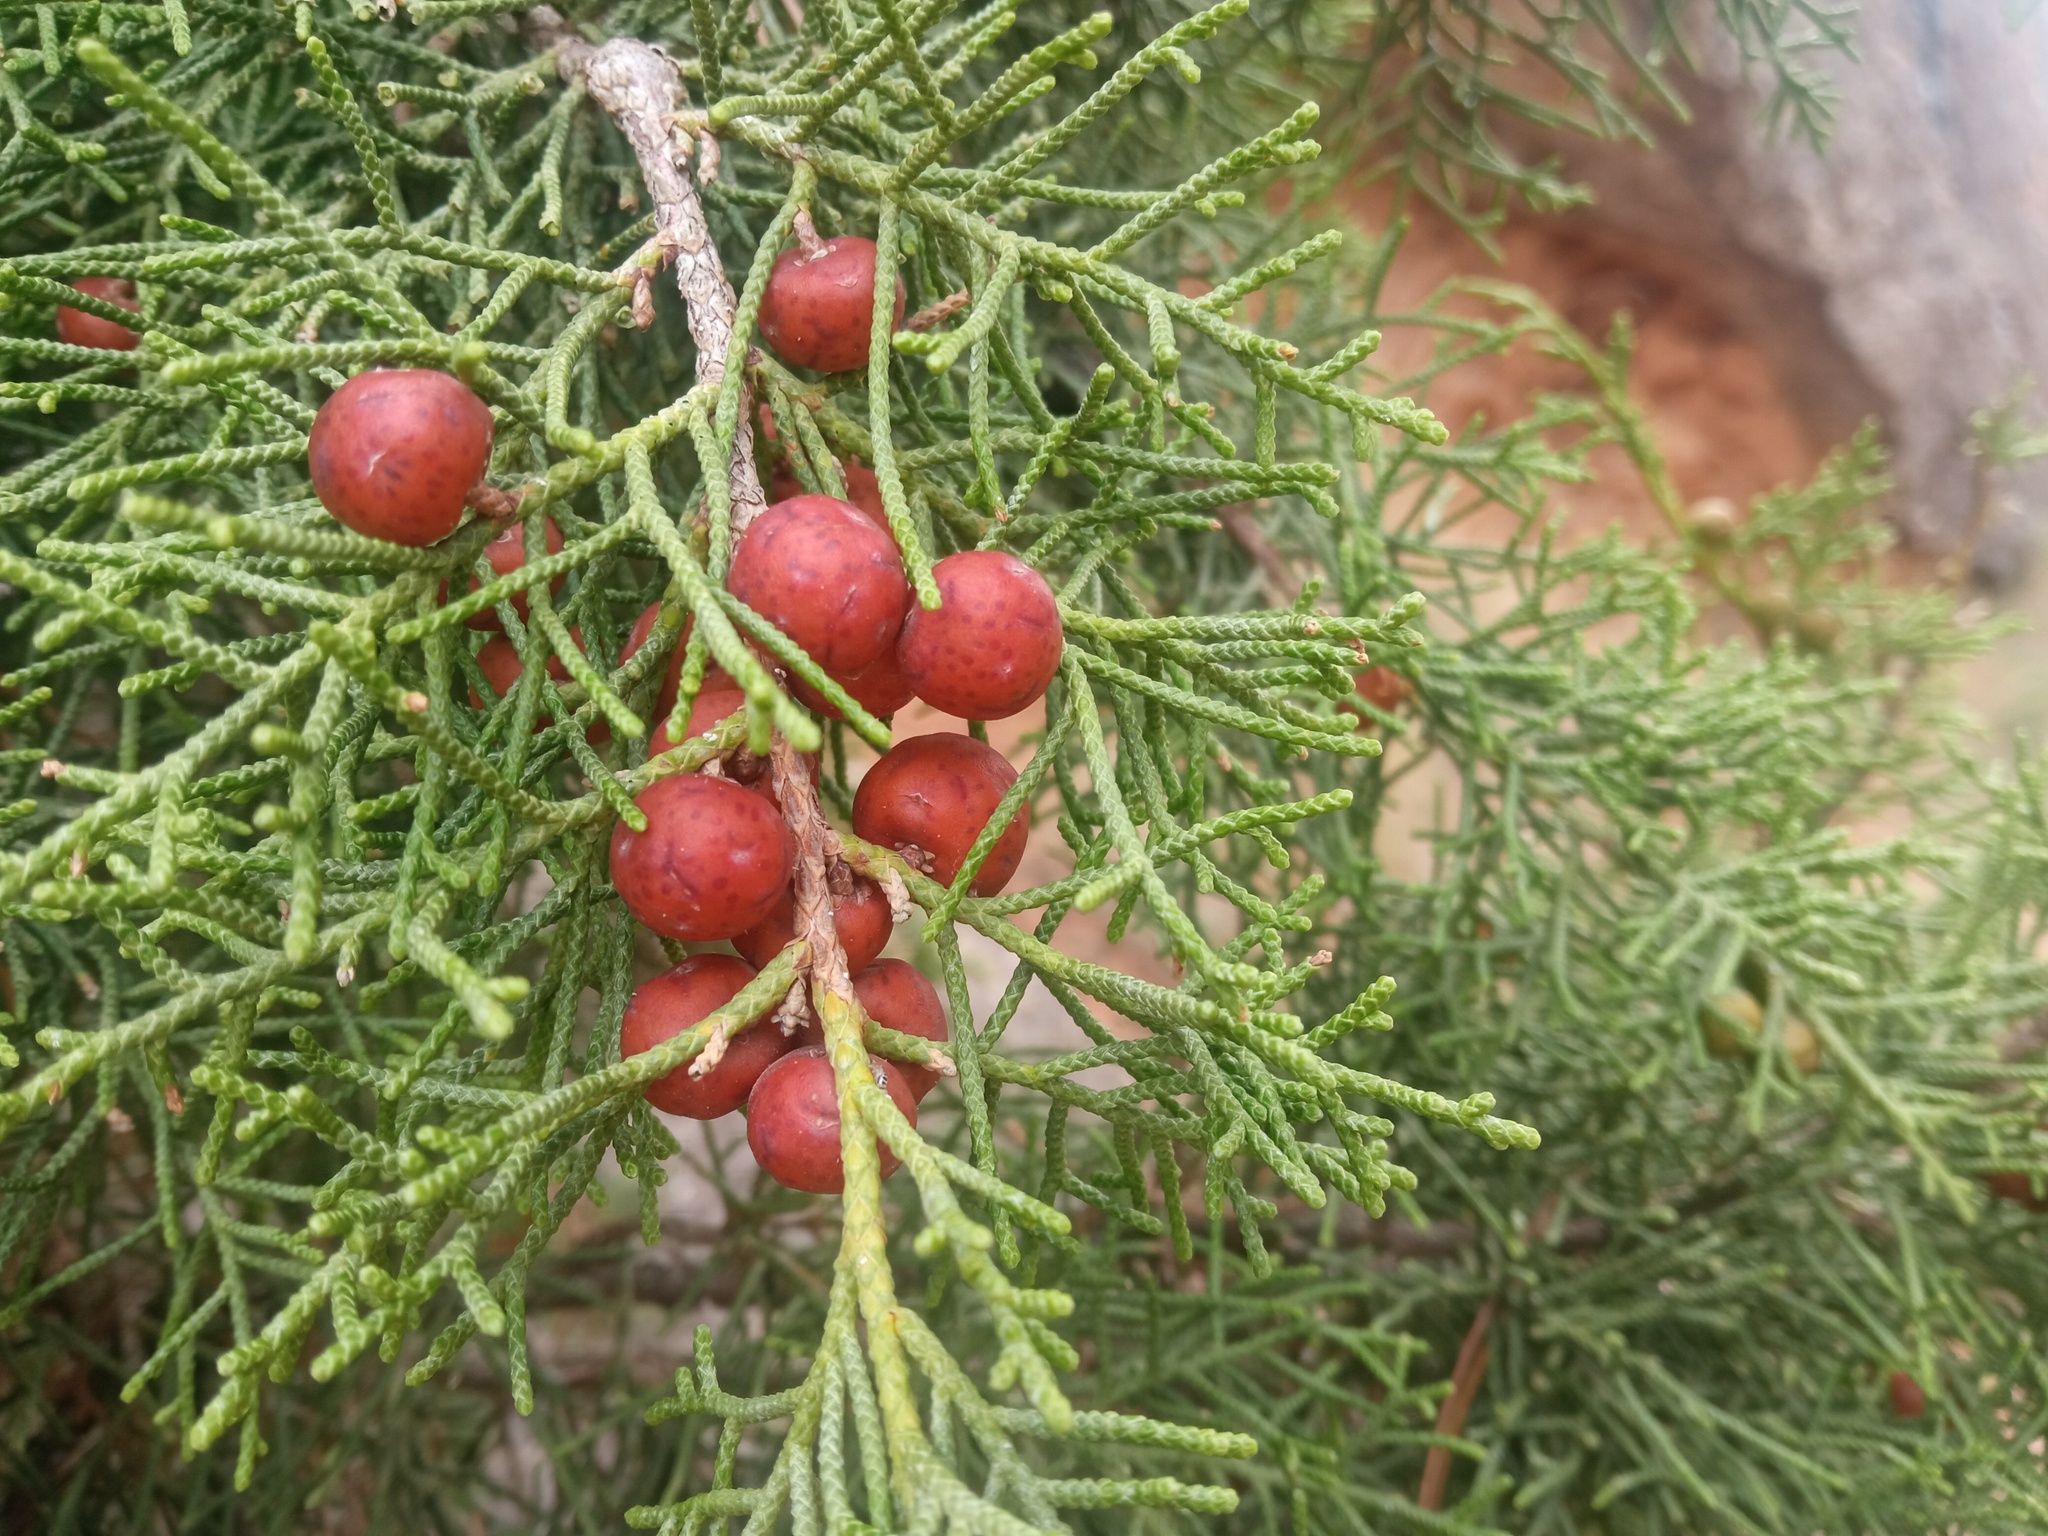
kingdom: Plantae
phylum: Tracheophyta
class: Pinopsida
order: Pinales
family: Cupressaceae
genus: Juniperus
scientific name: Juniperus phoenicea
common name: Phoenician juniper
